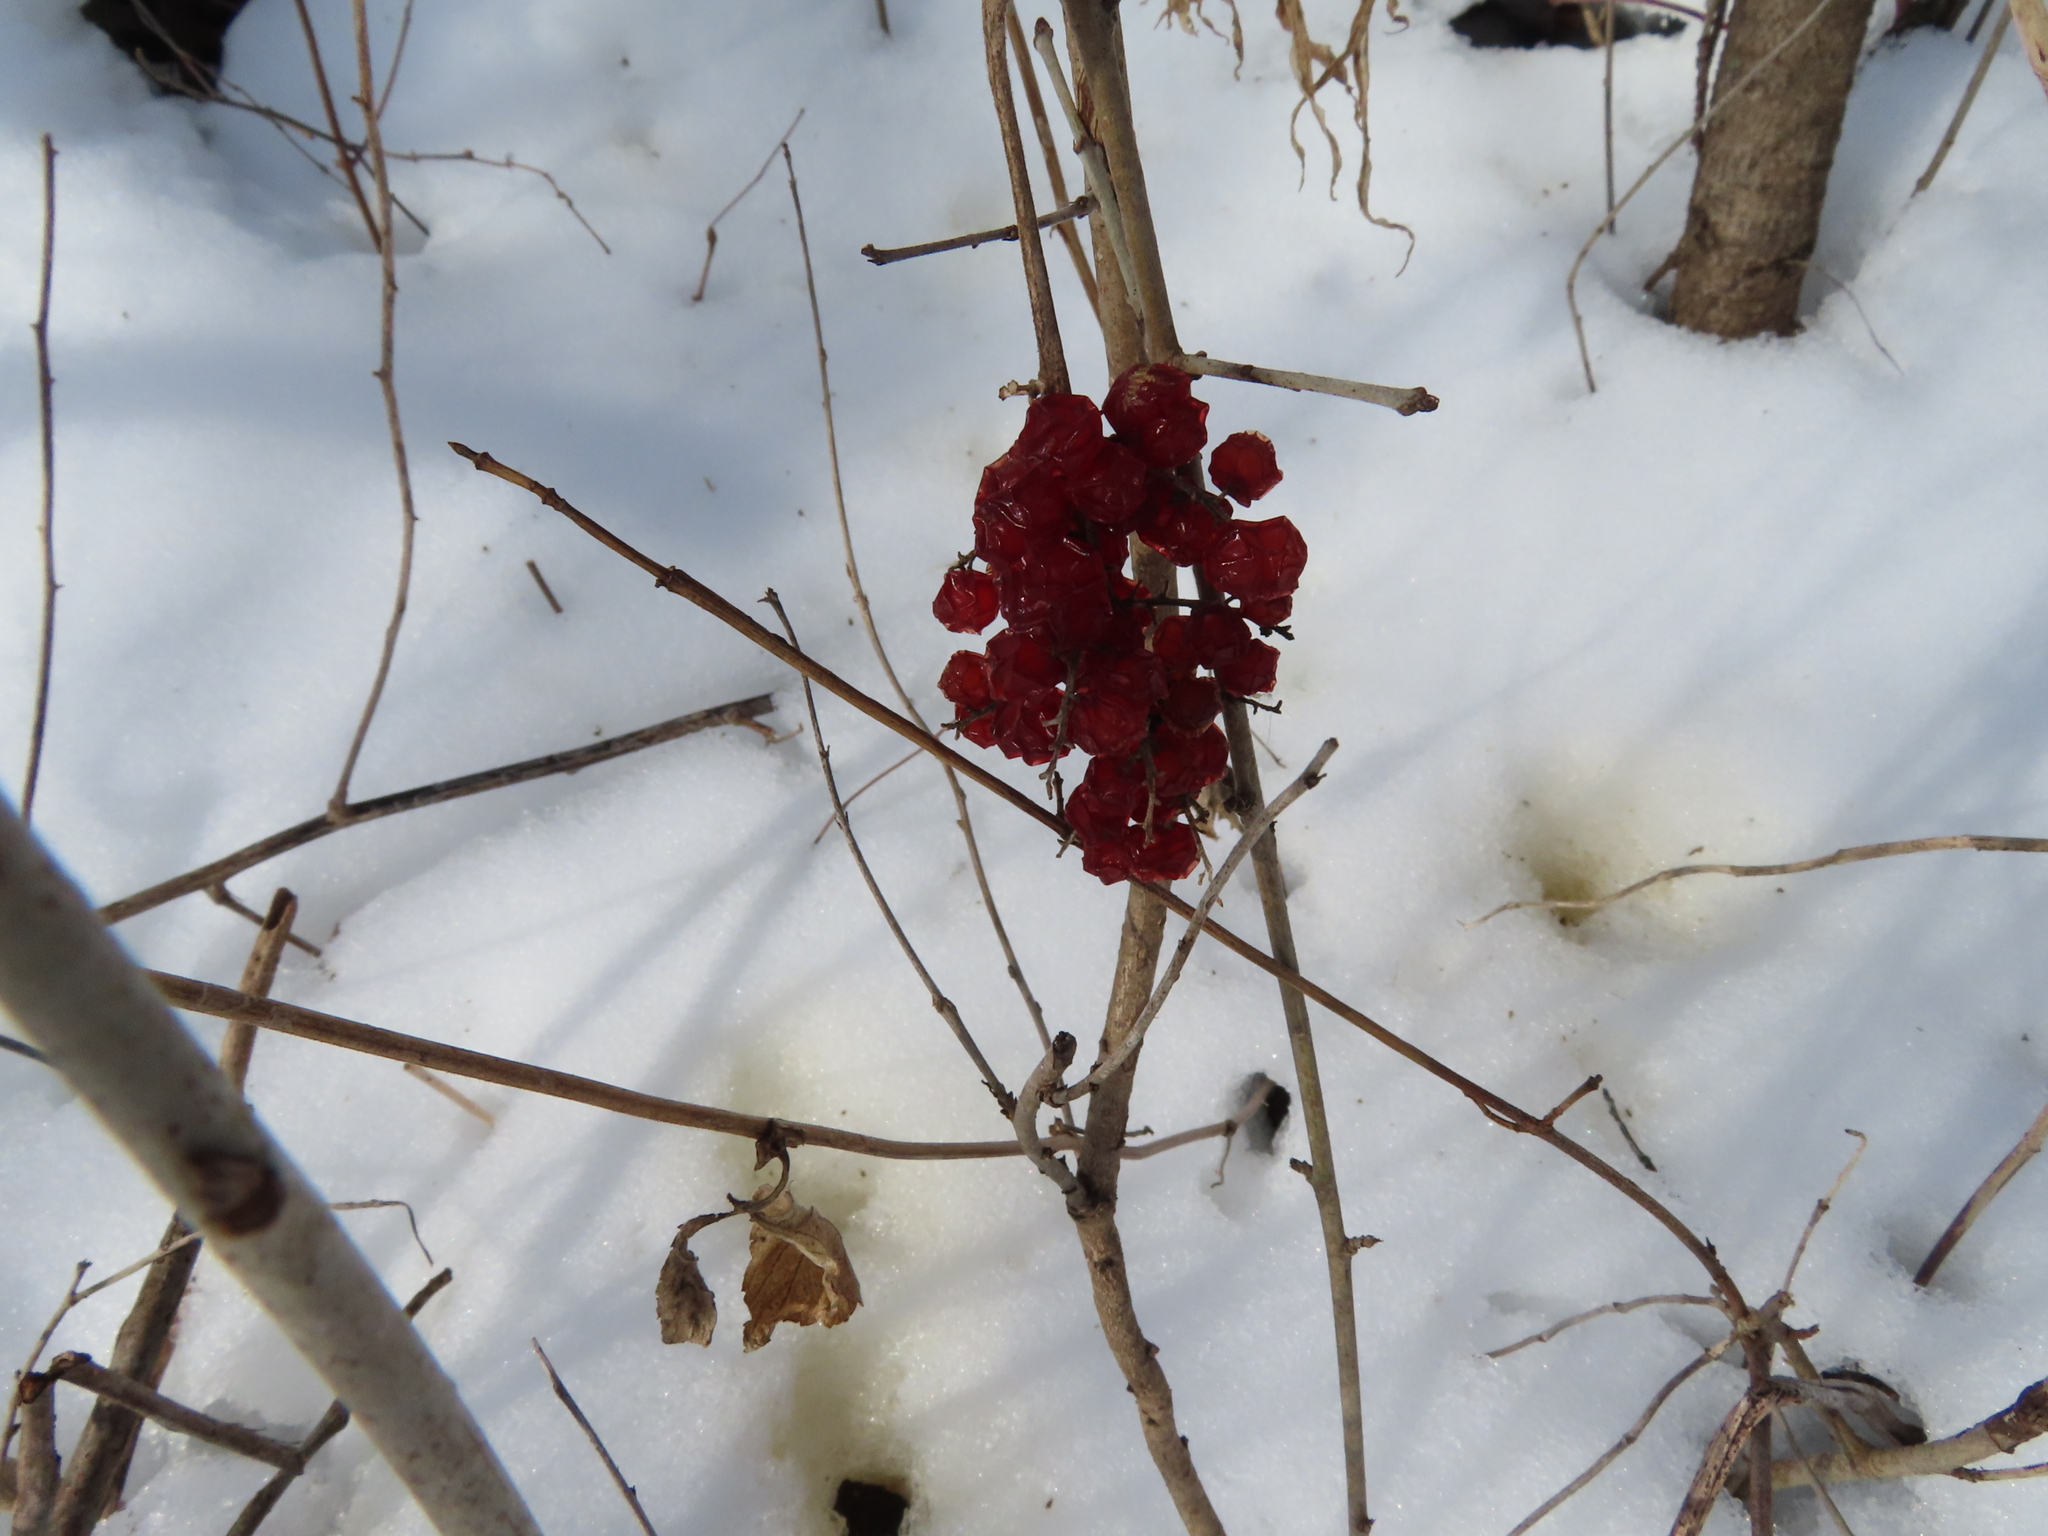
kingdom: Plantae
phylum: Tracheophyta
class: Magnoliopsida
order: Dipsacales
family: Viburnaceae
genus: Viburnum
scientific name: Viburnum opulus
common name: Guelder-rose
